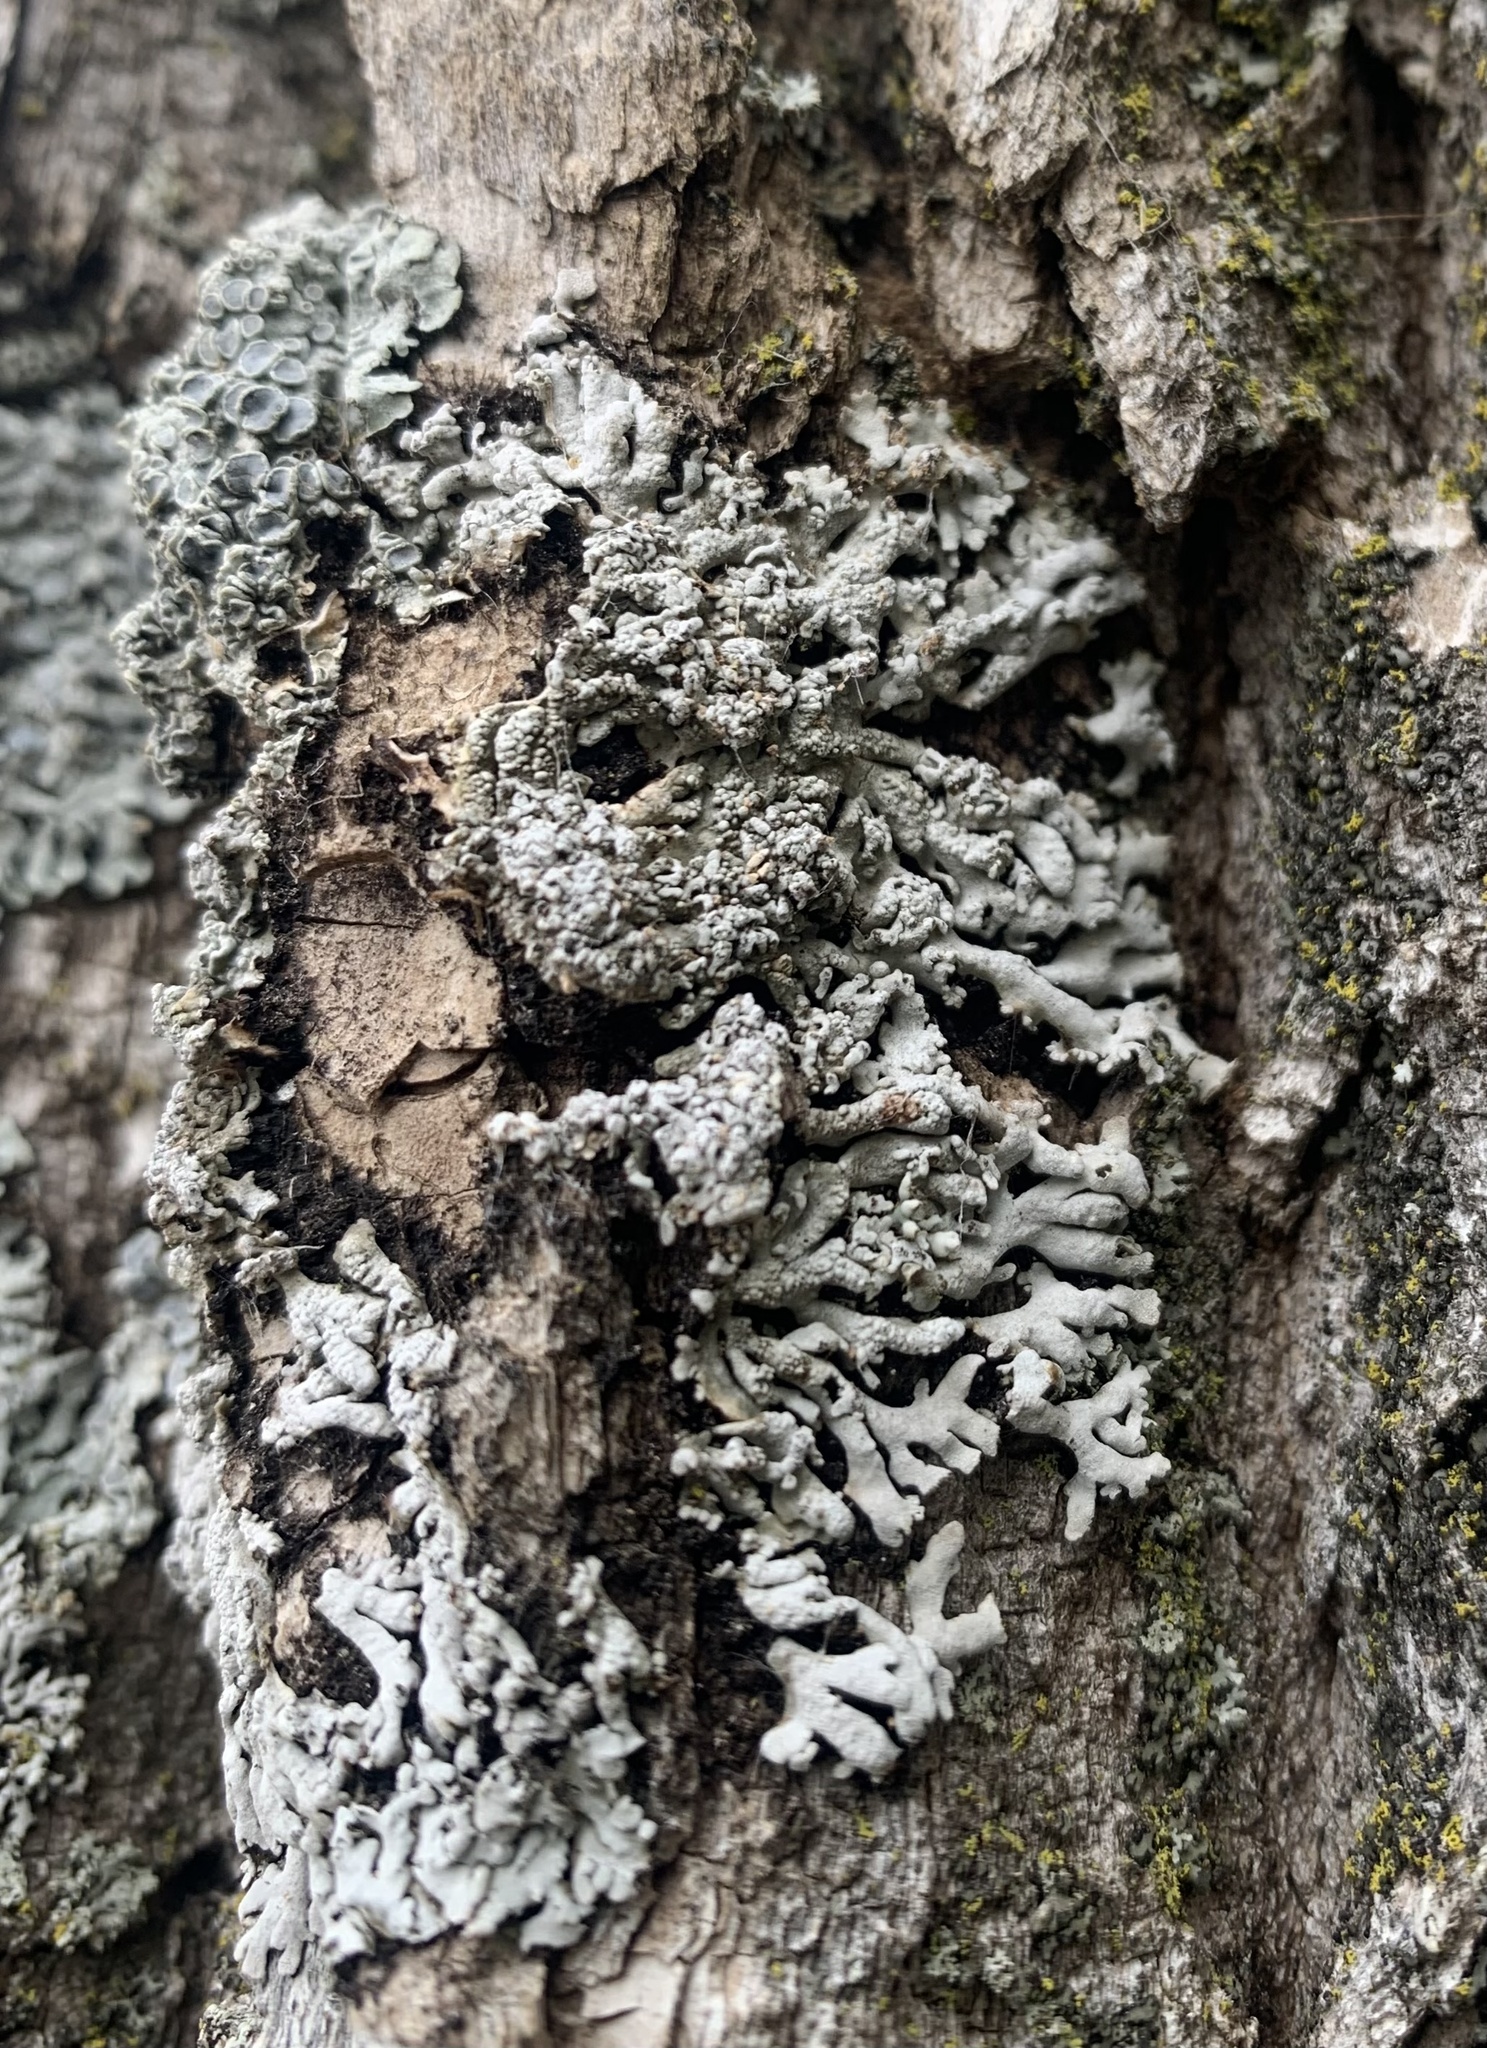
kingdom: Fungi
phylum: Ascomycota
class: Lecanoromycetes
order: Caliciales
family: Physciaceae
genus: Physconia
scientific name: Physconia subpallida
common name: Pale-belly frost lichen
